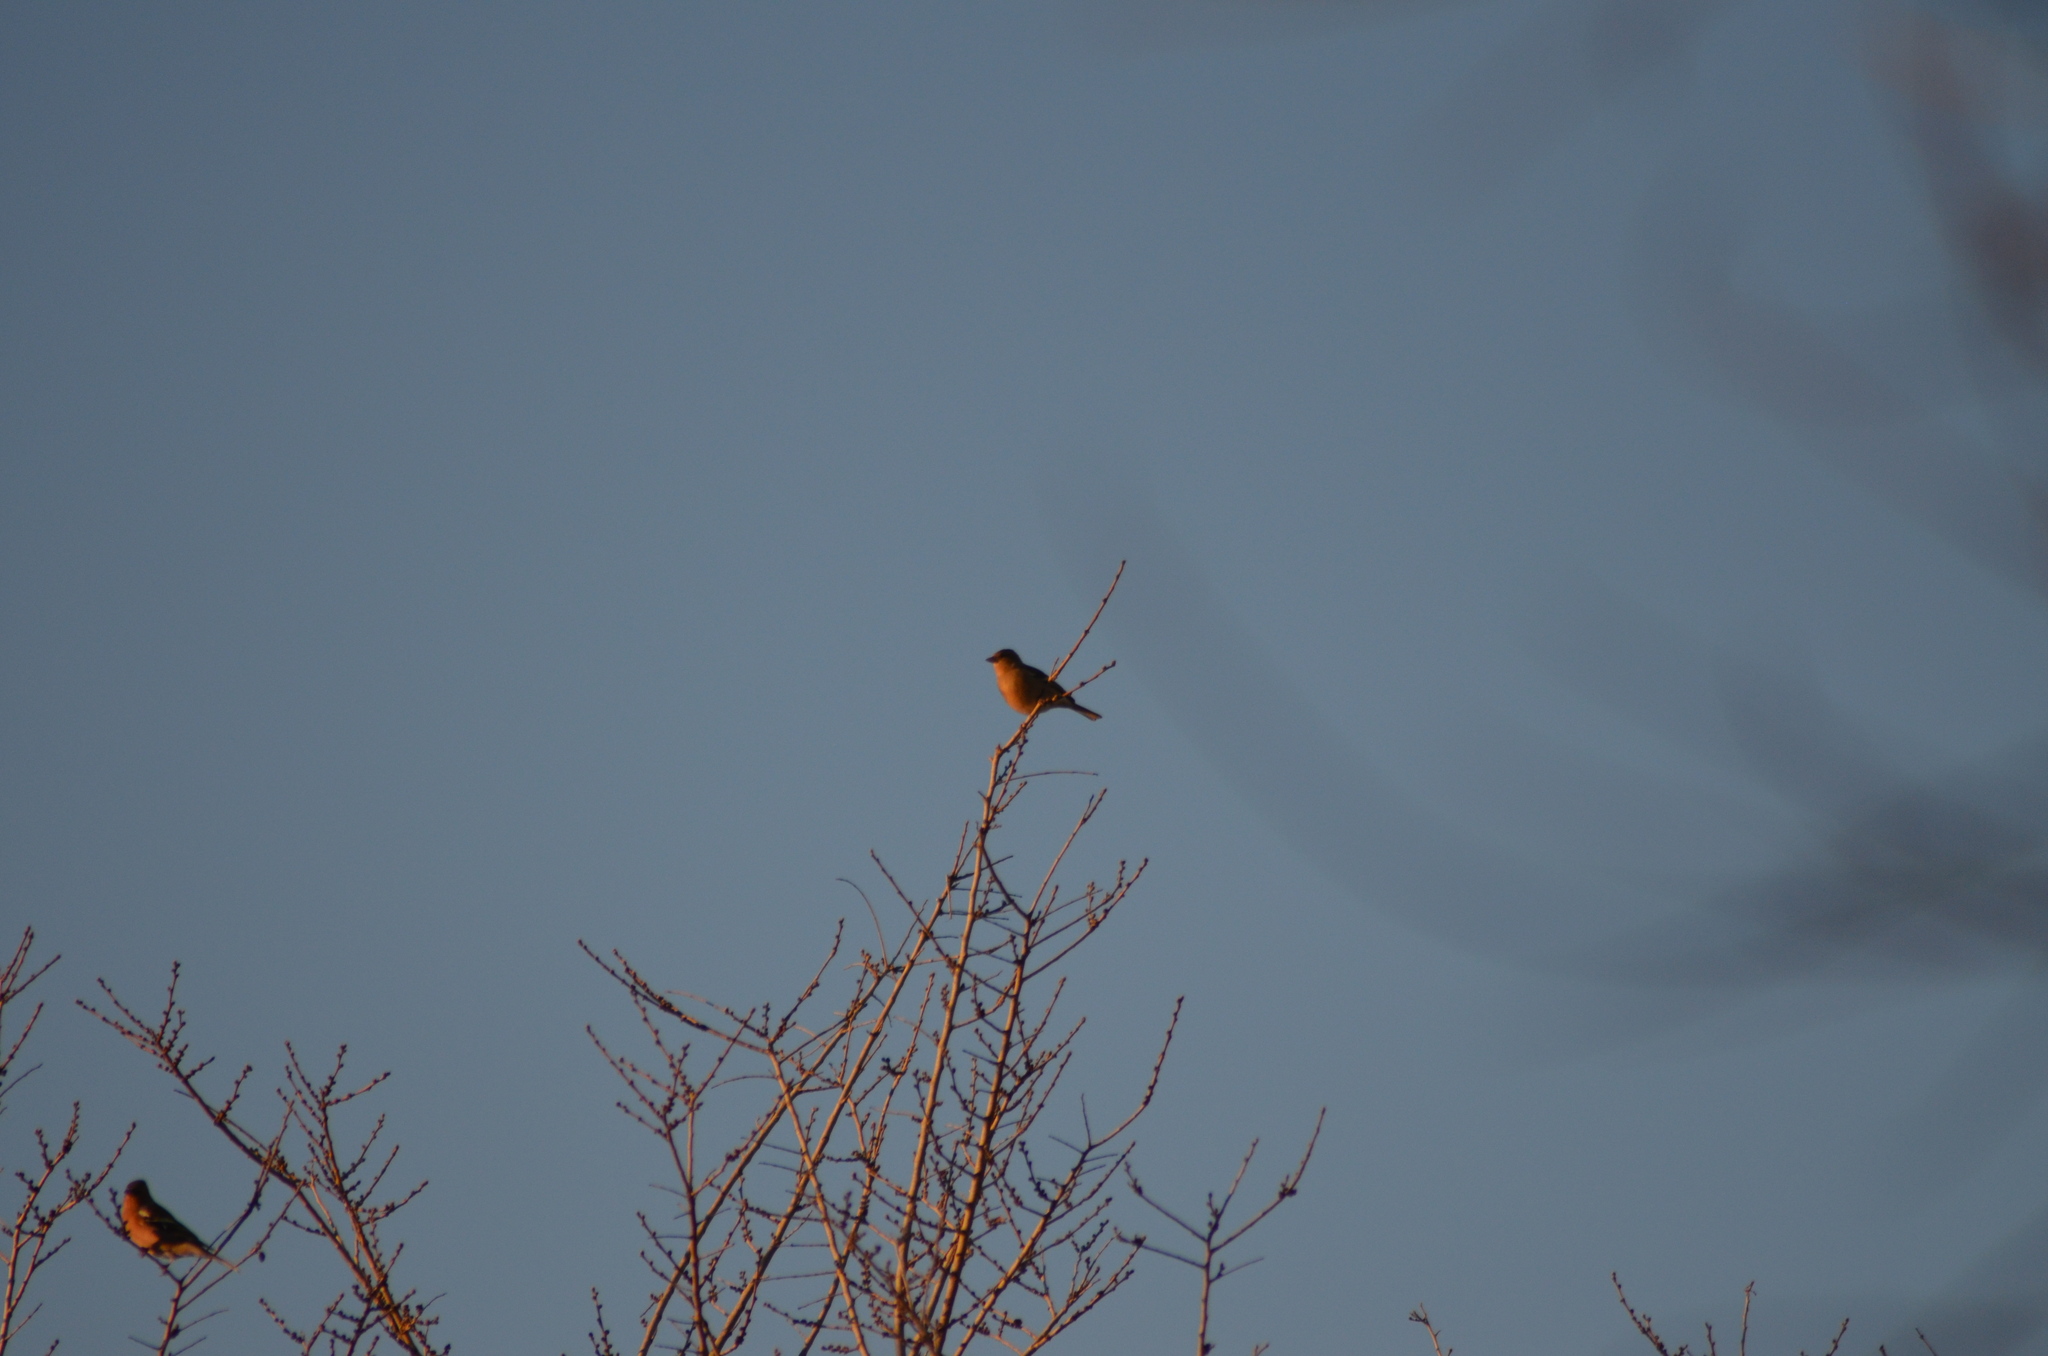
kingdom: Animalia
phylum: Chordata
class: Aves
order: Passeriformes
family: Fringillidae
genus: Fringilla
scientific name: Fringilla coelebs
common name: Common chaffinch
